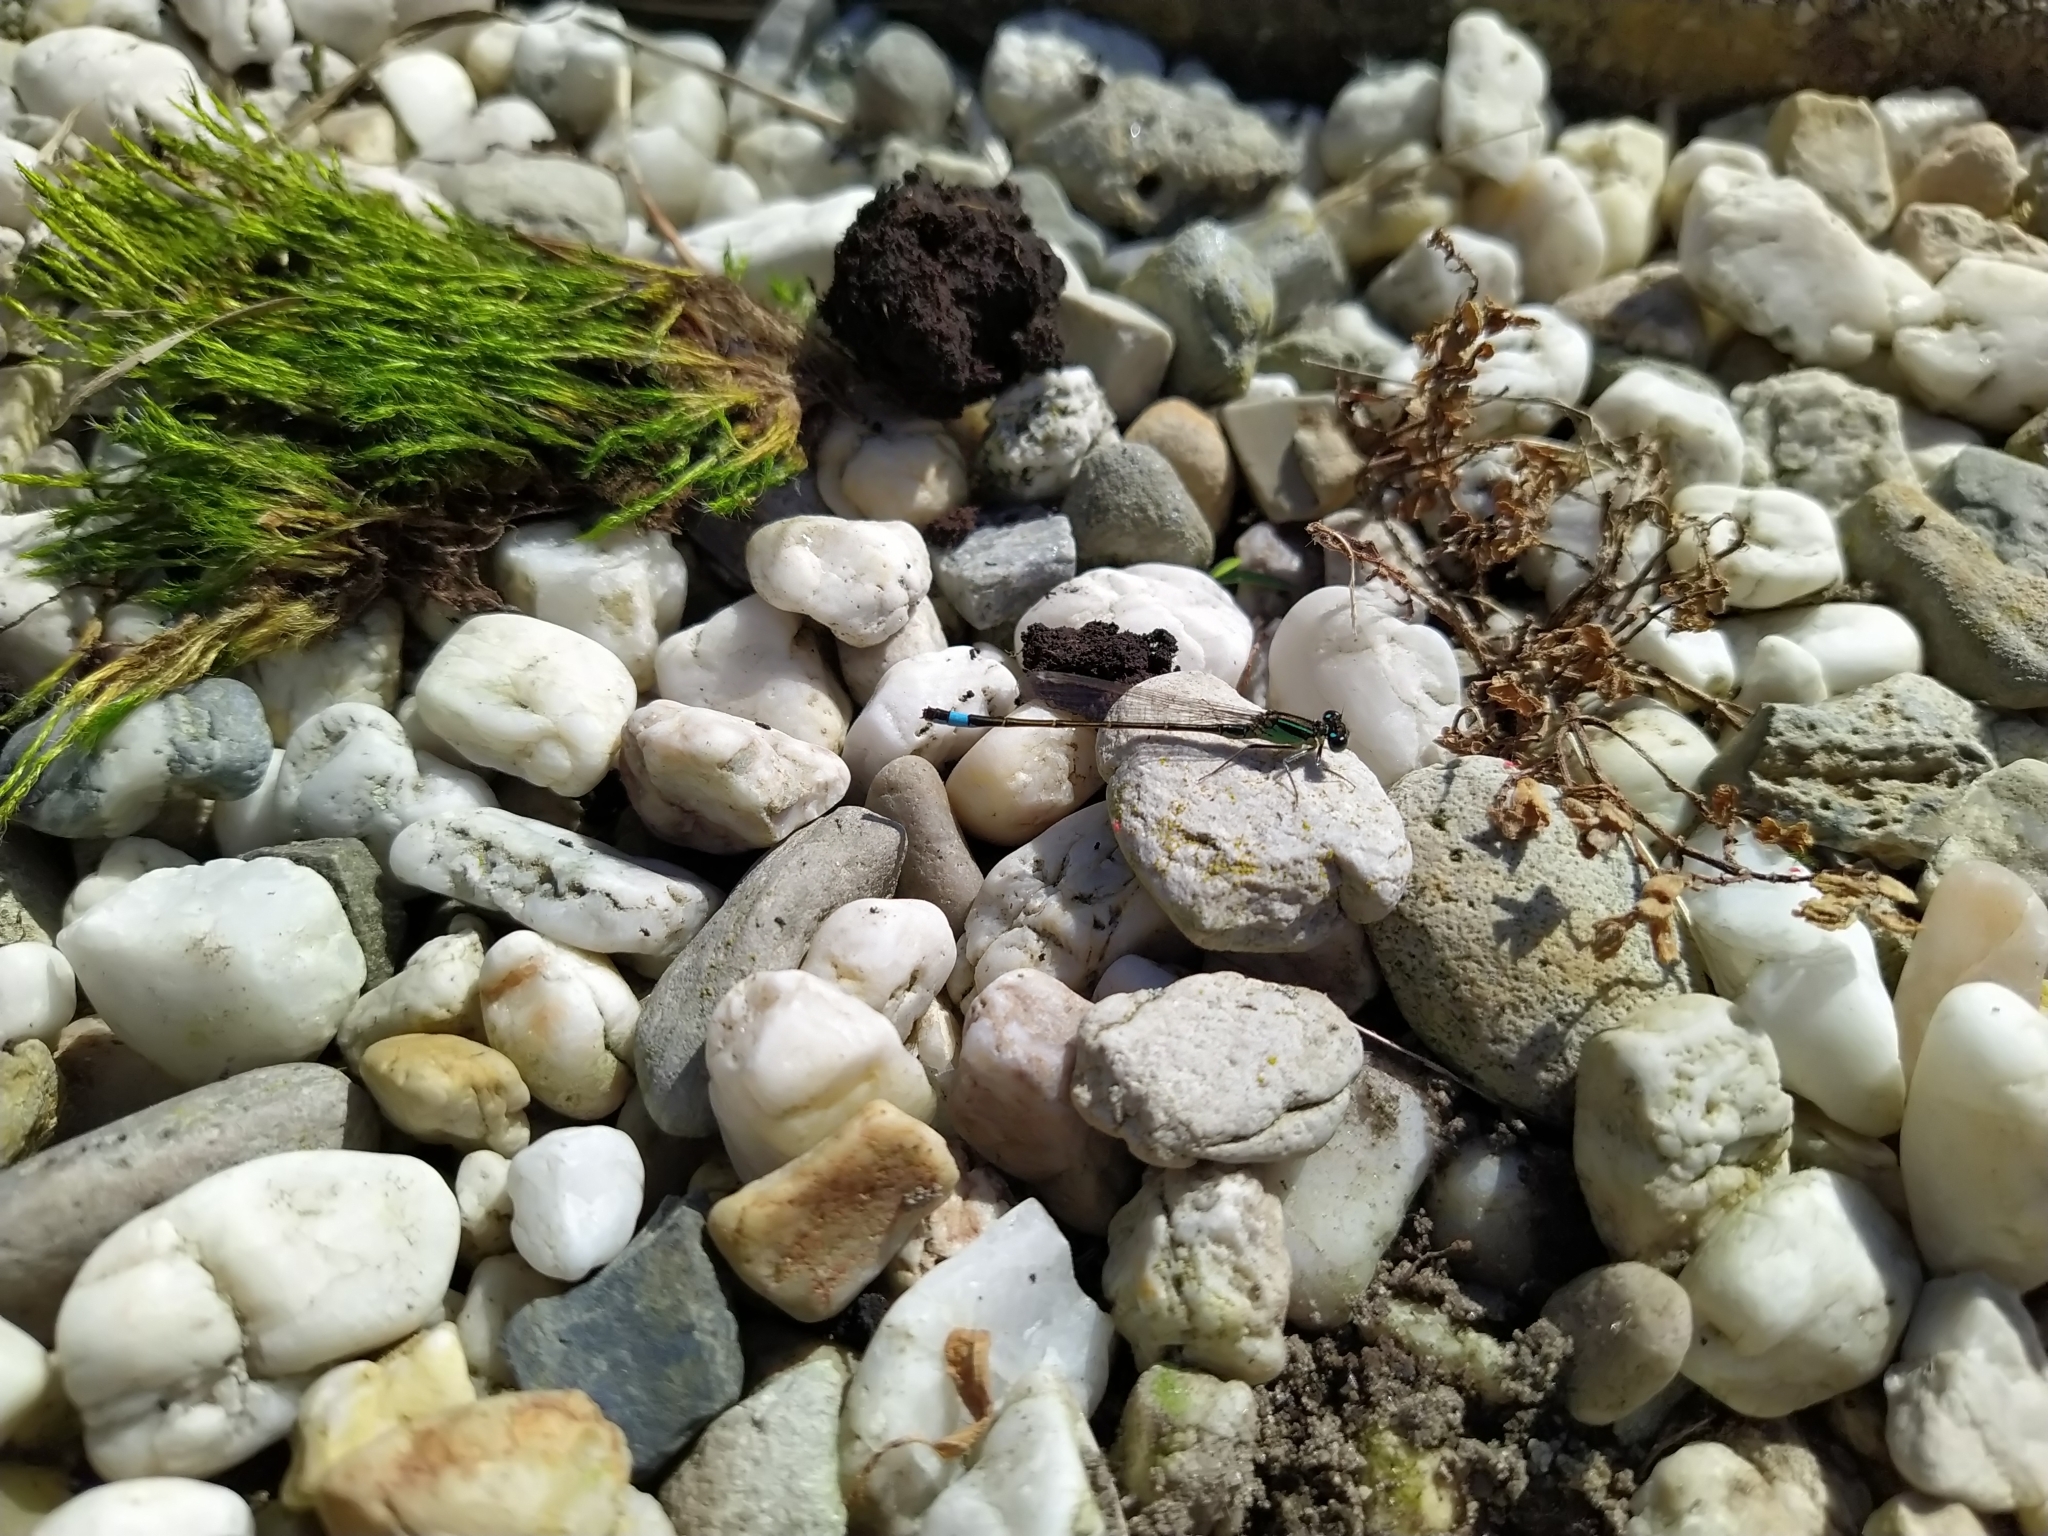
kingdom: Animalia
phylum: Arthropoda
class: Insecta
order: Odonata
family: Coenagrionidae
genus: Ischnura
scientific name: Ischnura elegans
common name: Blue-tailed damselfly
